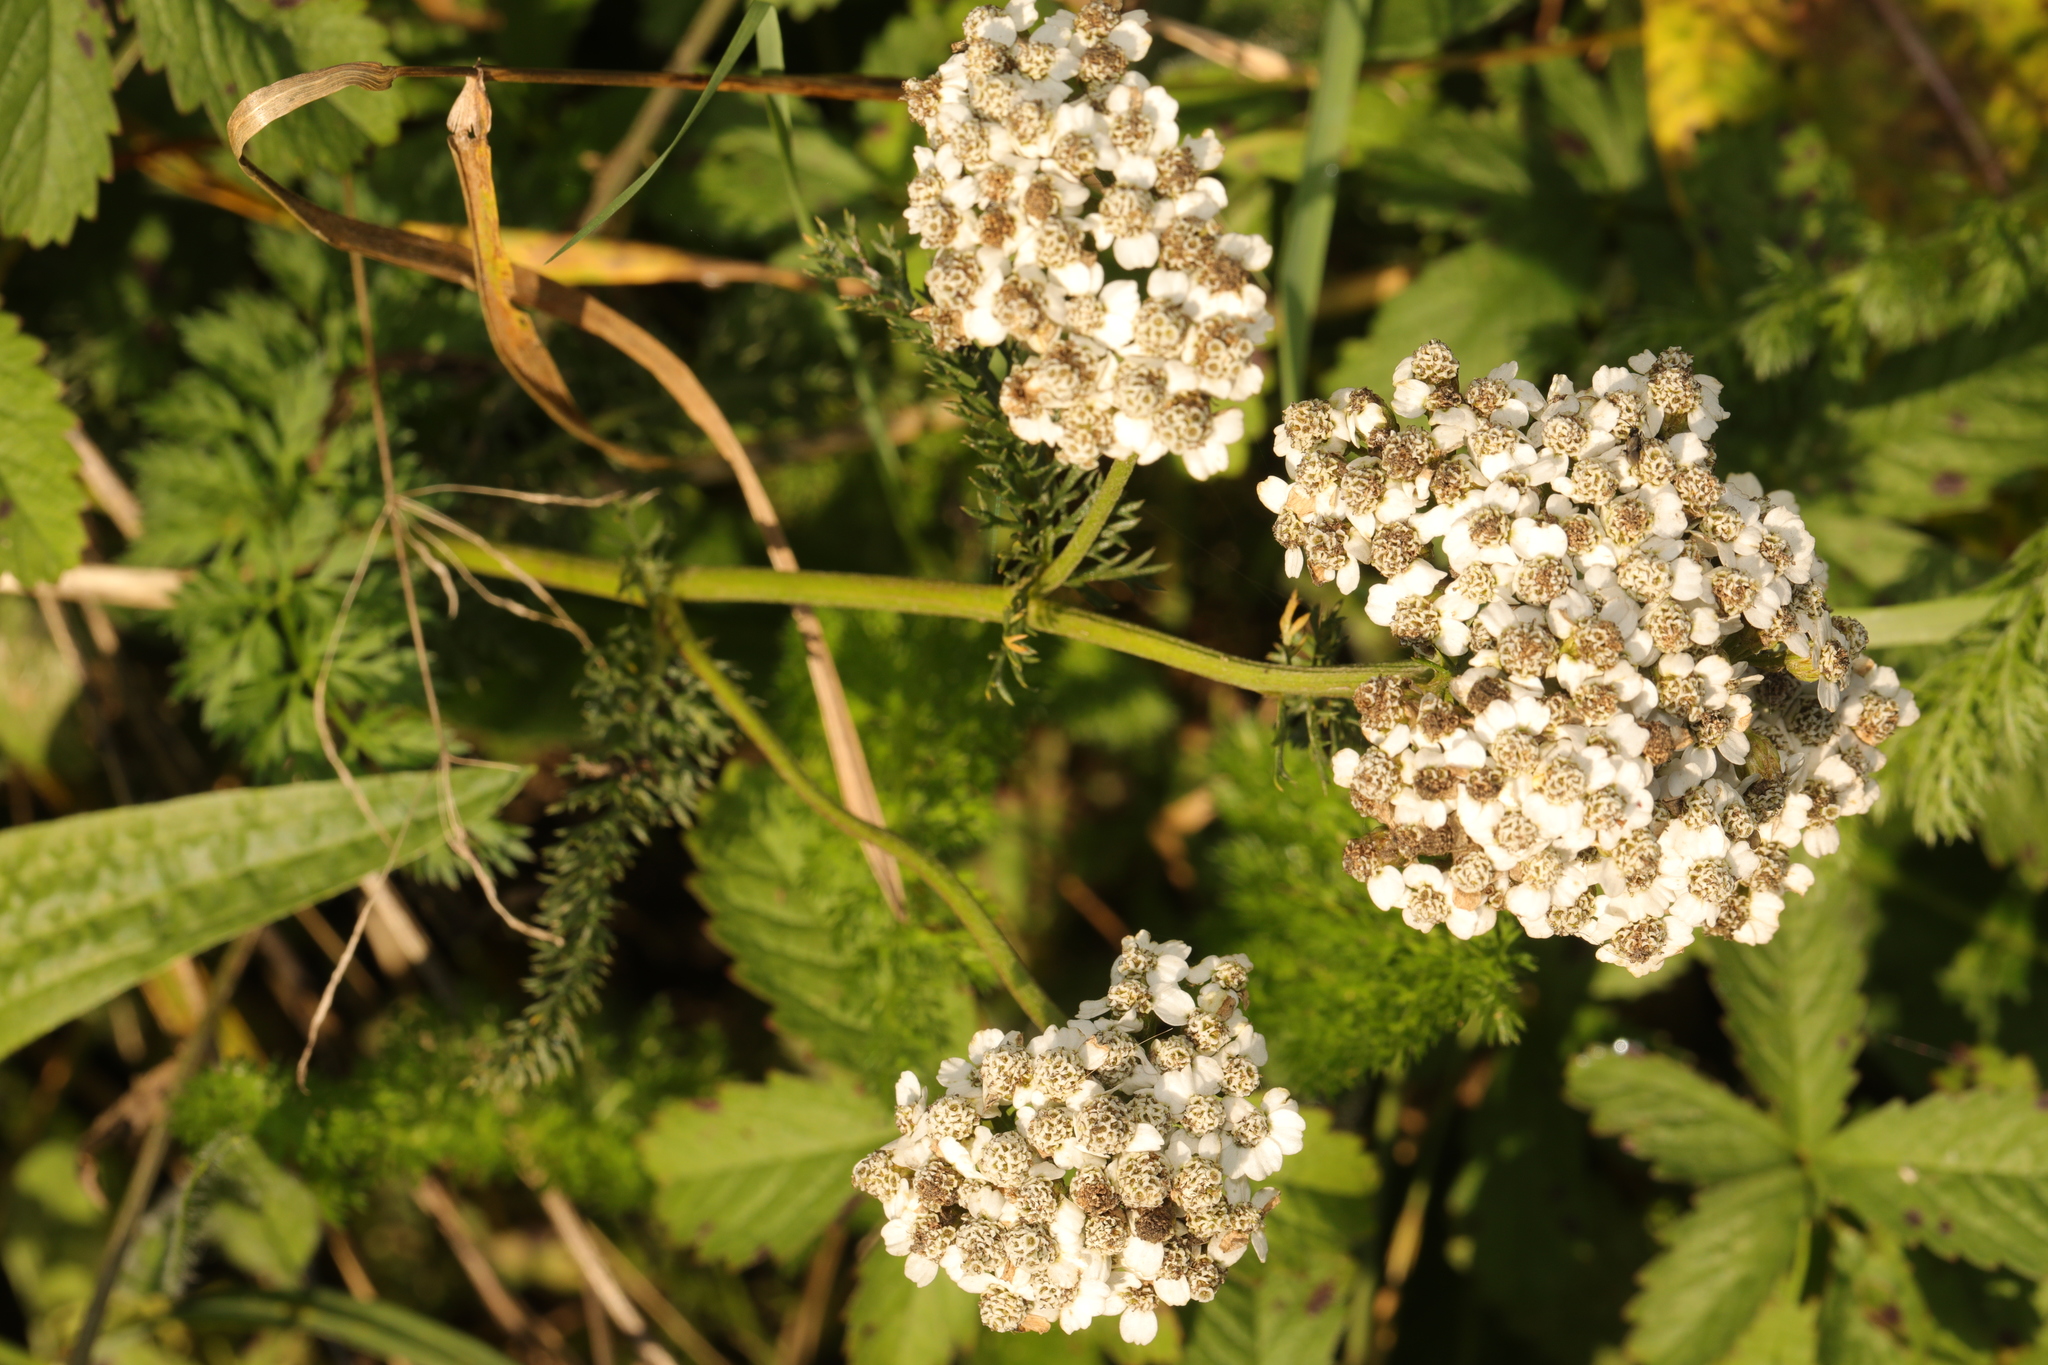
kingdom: Plantae
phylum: Tracheophyta
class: Magnoliopsida
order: Asterales
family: Asteraceae
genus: Achillea
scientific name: Achillea millefolium
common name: Yarrow
